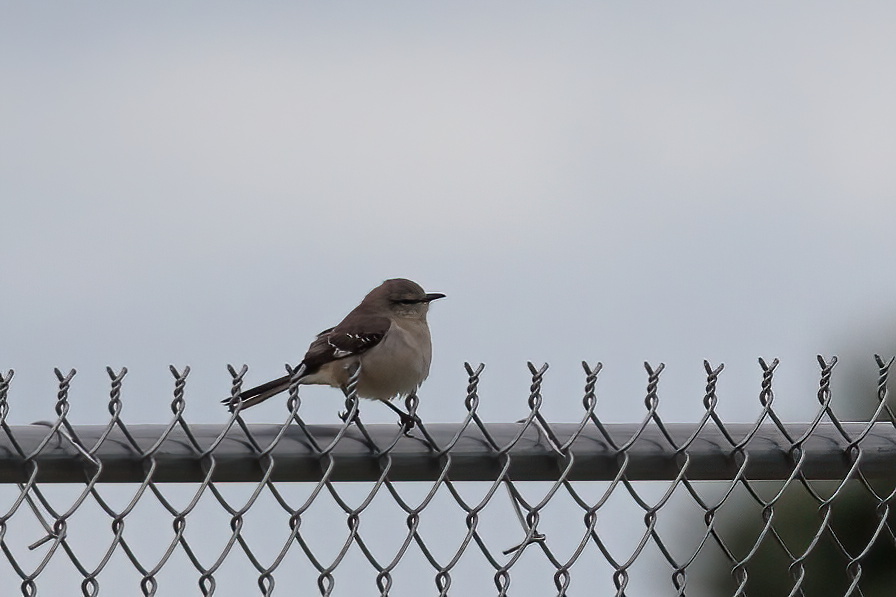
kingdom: Animalia
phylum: Chordata
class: Aves
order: Passeriformes
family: Mimidae
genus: Mimus
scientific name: Mimus polyglottos
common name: Northern mockingbird
